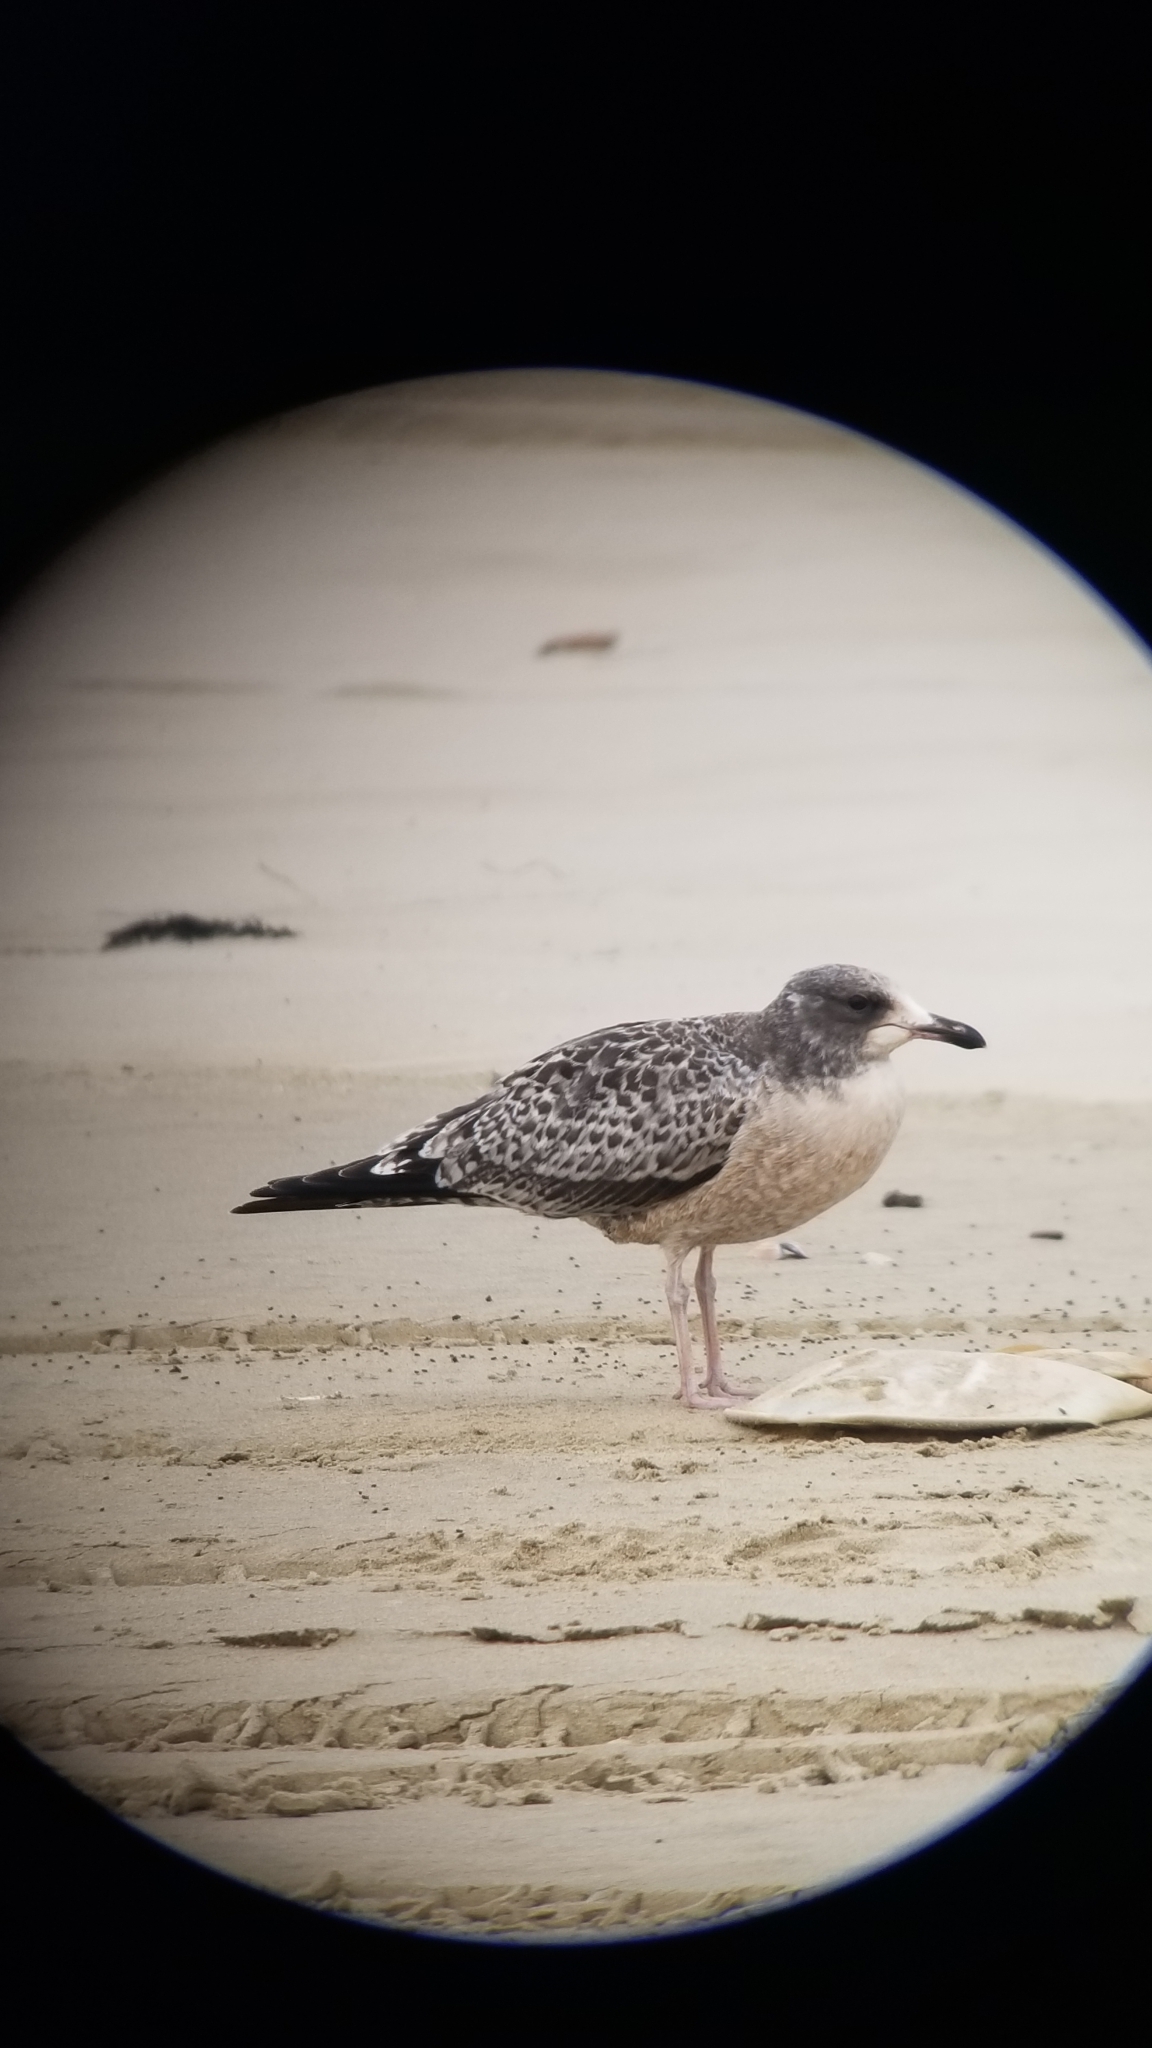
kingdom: Animalia
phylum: Chordata
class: Aves
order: Charadriiformes
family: Laridae
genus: Larus
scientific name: Larus californicus
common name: California gull
